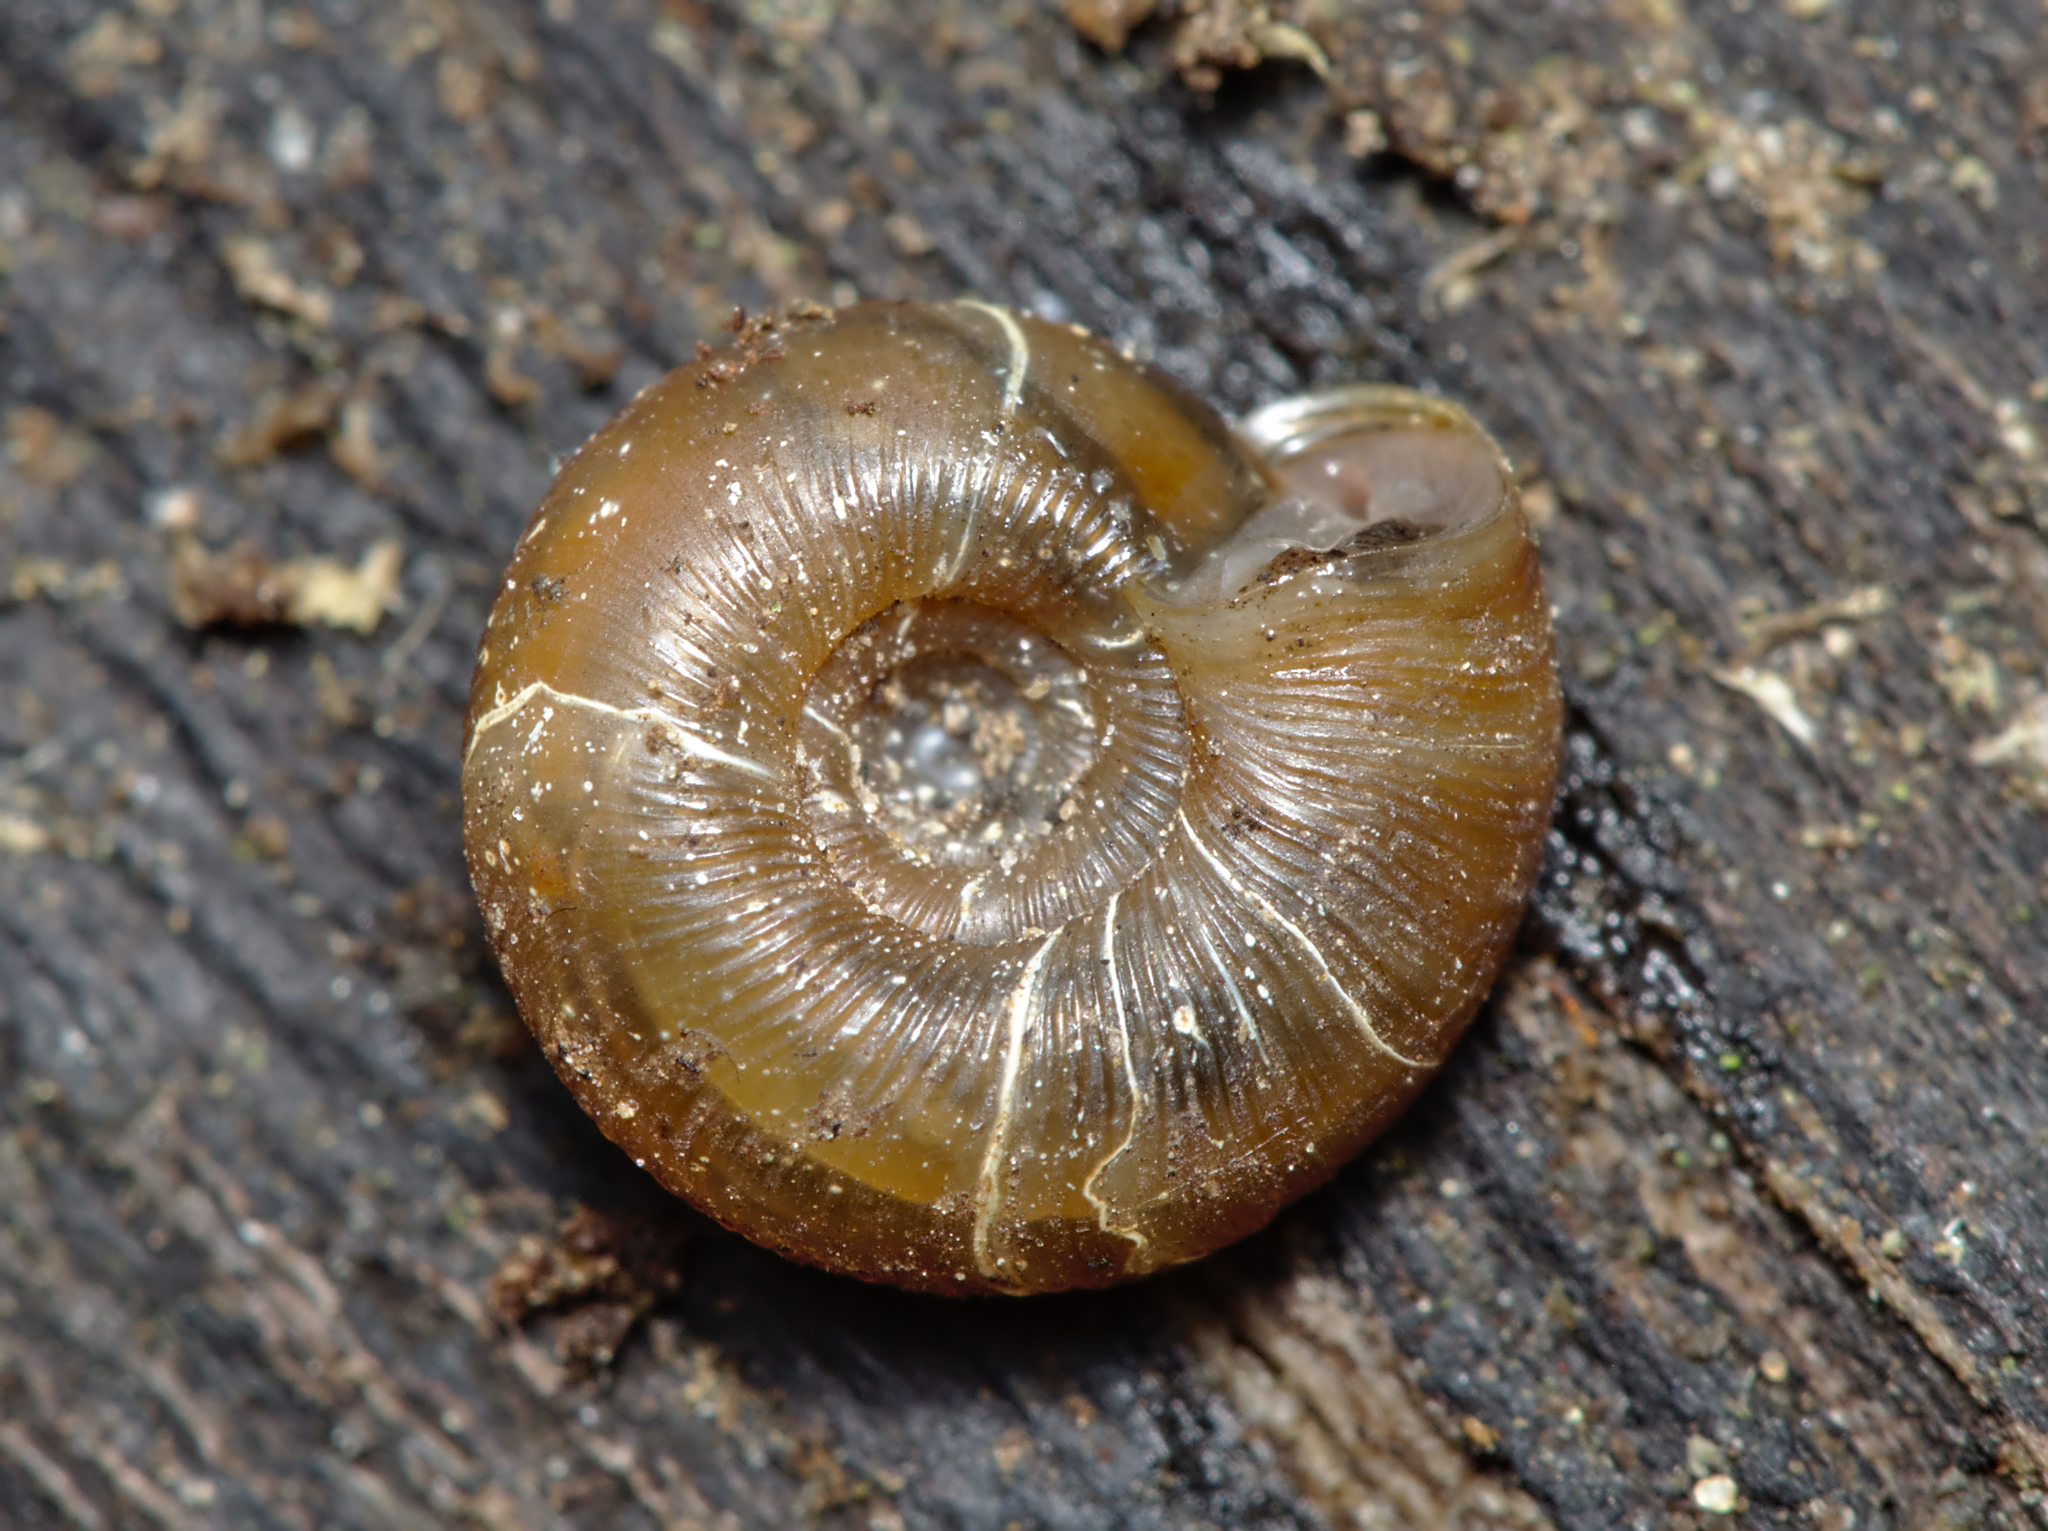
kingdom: Animalia
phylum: Mollusca
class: Gastropoda
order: Stylommatophora
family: Discidae
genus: Discus
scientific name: Discus rotundatus
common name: Rounded snail
